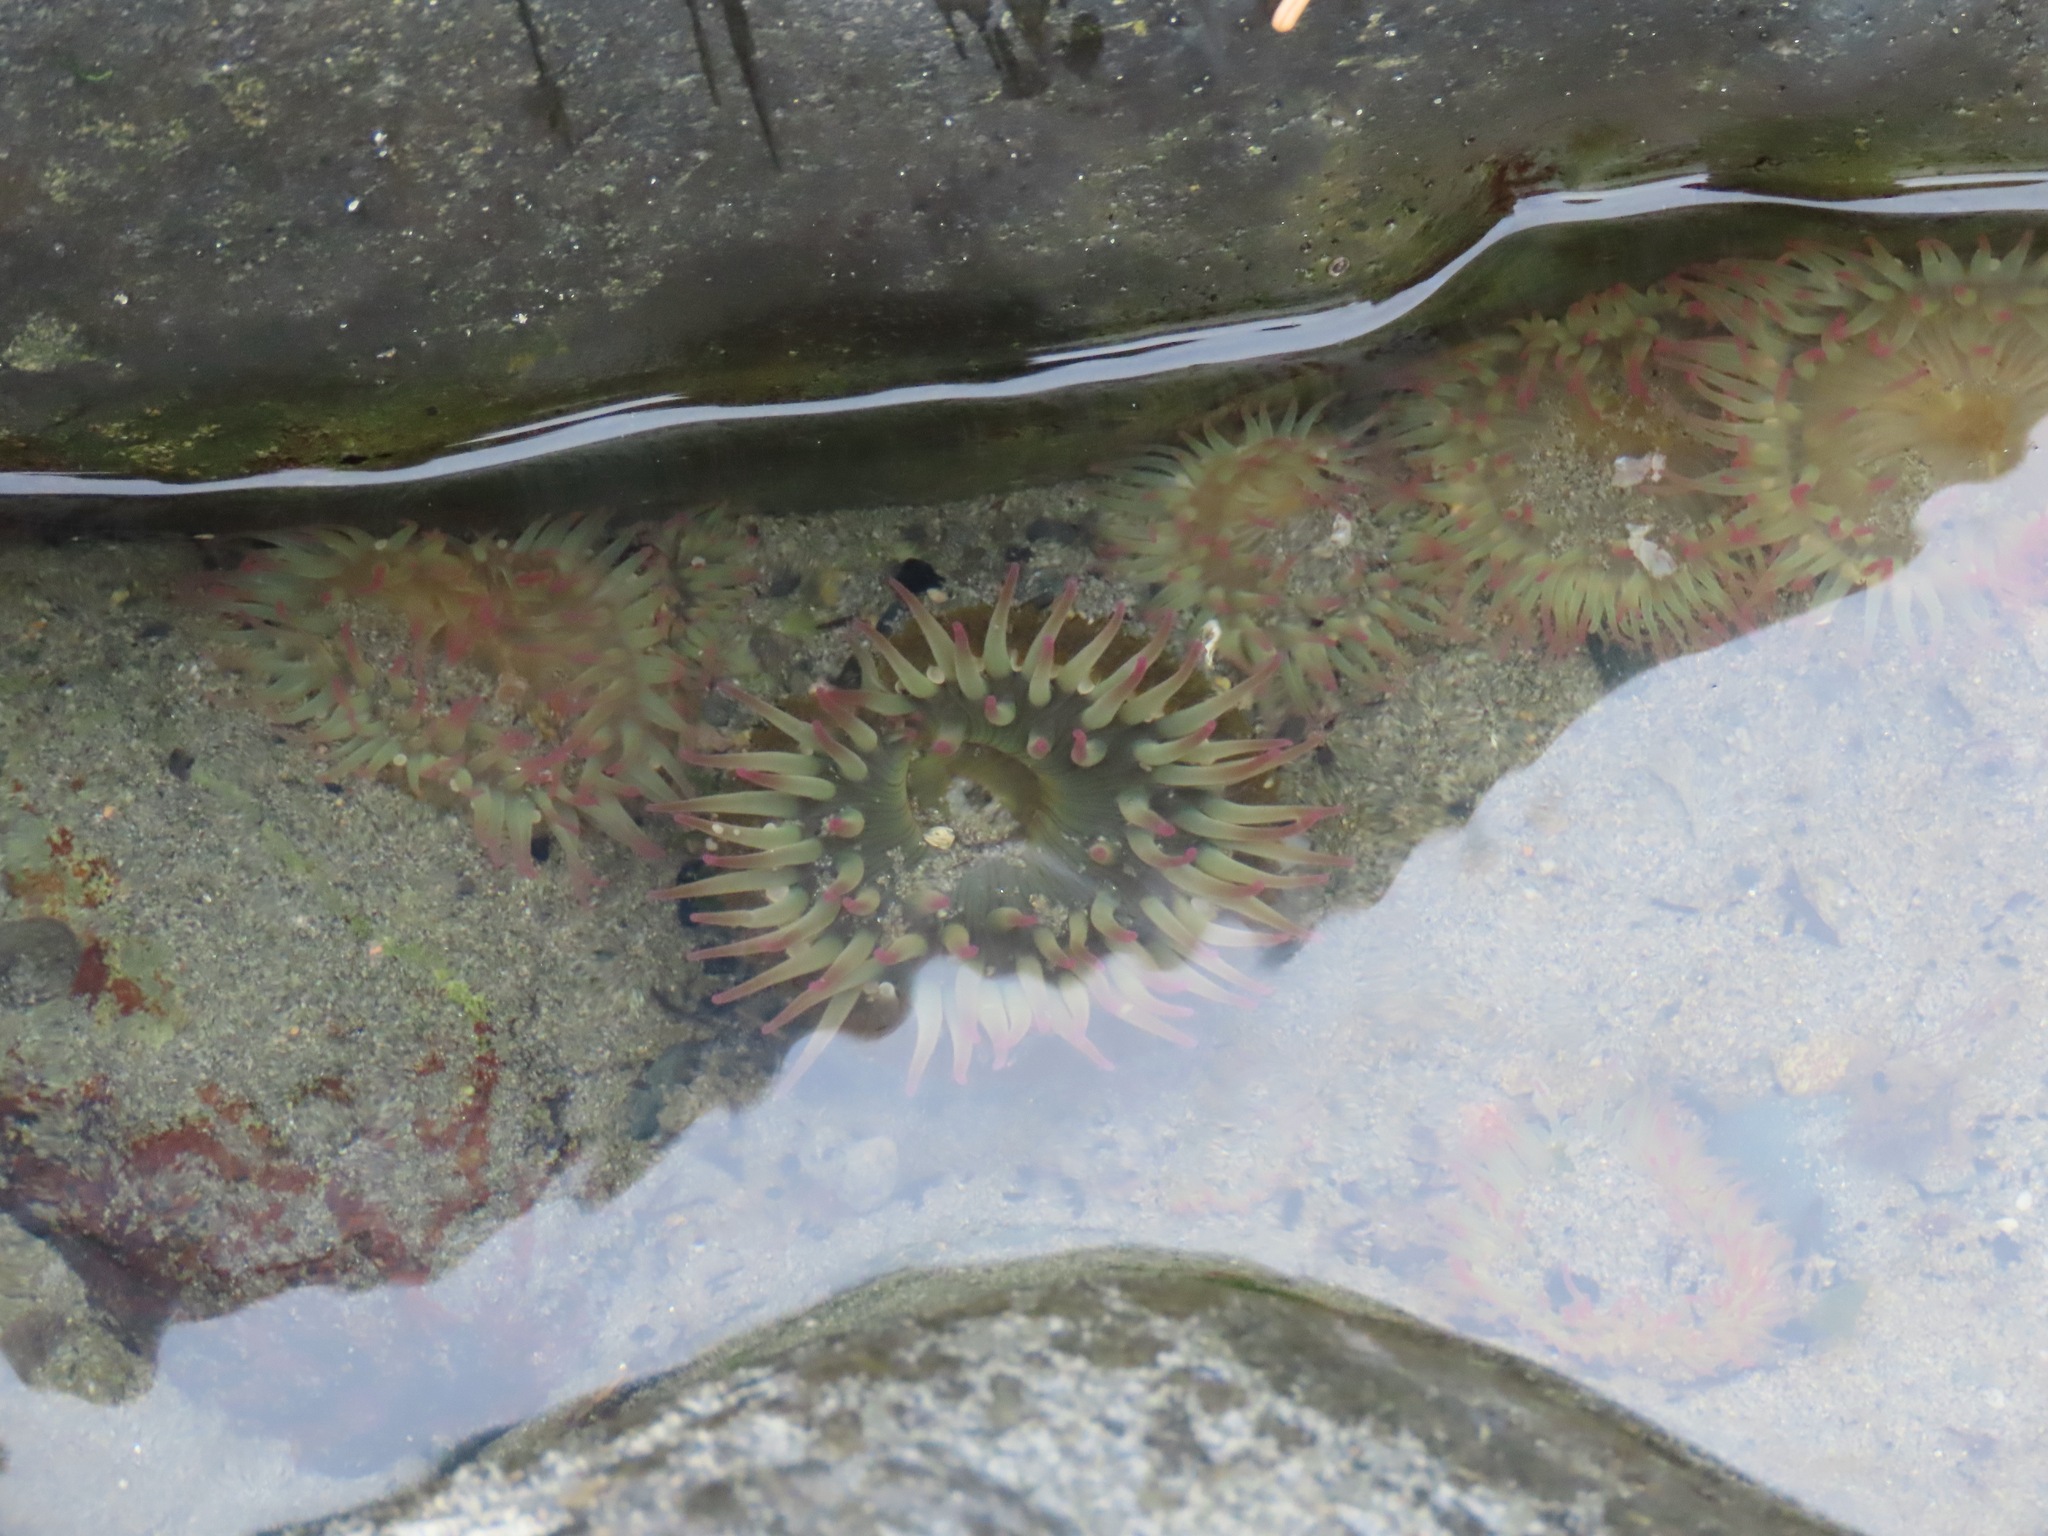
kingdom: Animalia
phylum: Cnidaria
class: Anthozoa
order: Actiniaria
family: Actiniidae
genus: Anthopleura
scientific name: Anthopleura elegantissima
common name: Clonal anemone
